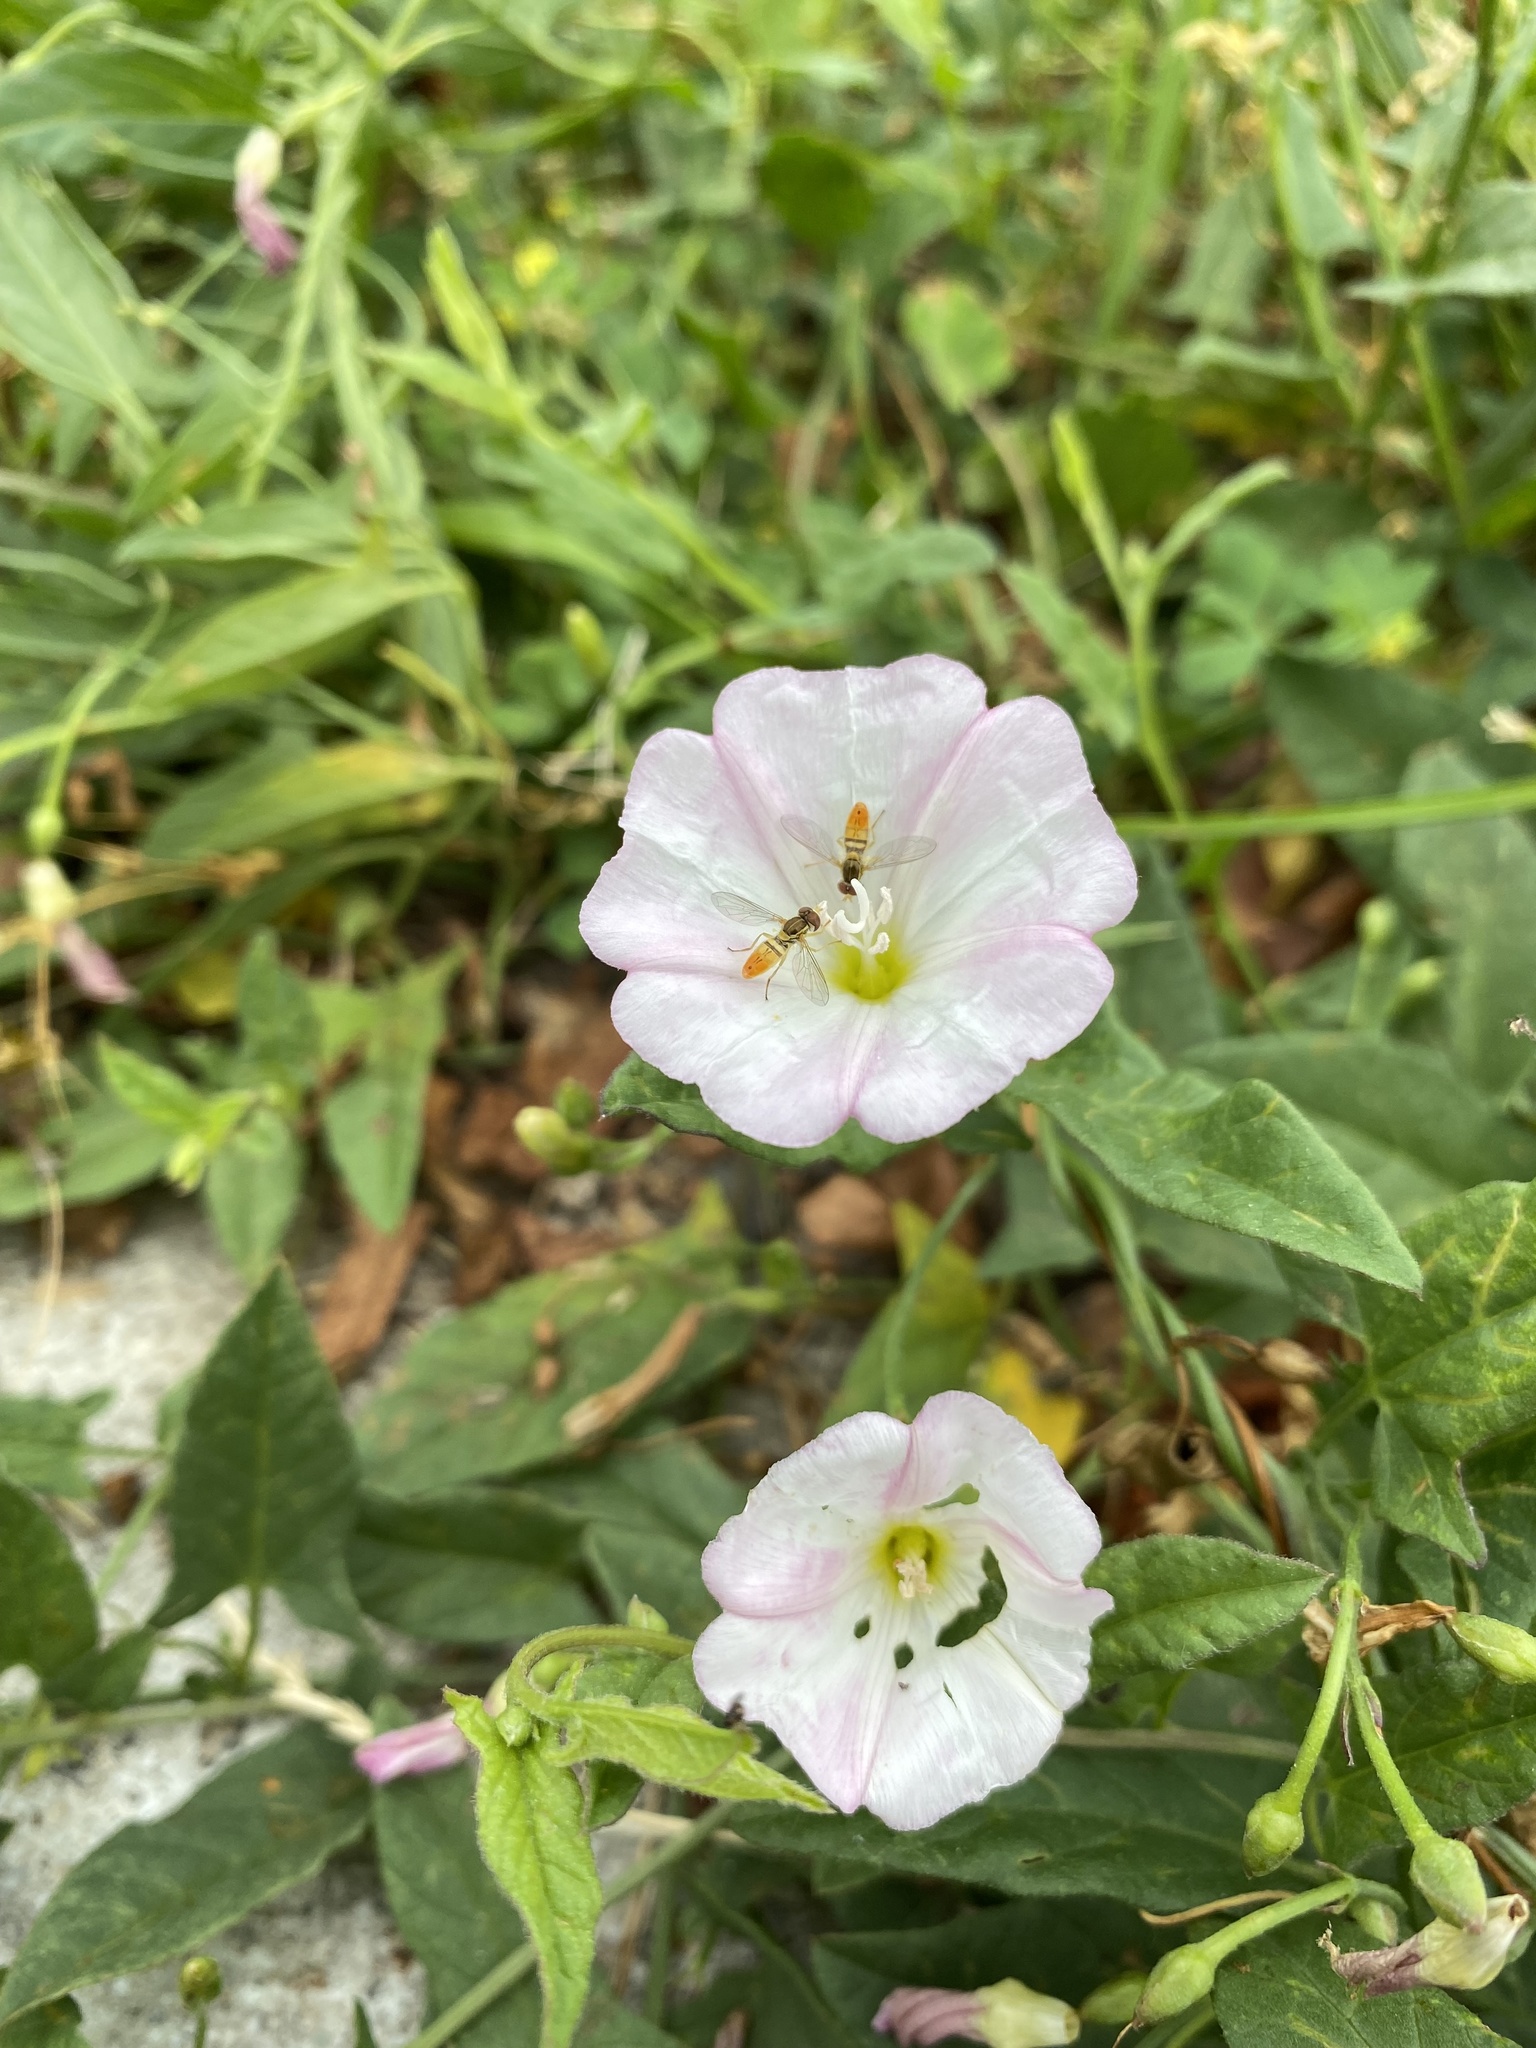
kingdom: Animalia
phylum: Arthropoda
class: Insecta
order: Diptera
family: Syrphidae
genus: Toxomerus
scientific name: Toxomerus marginatus
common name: Syrphid fly
